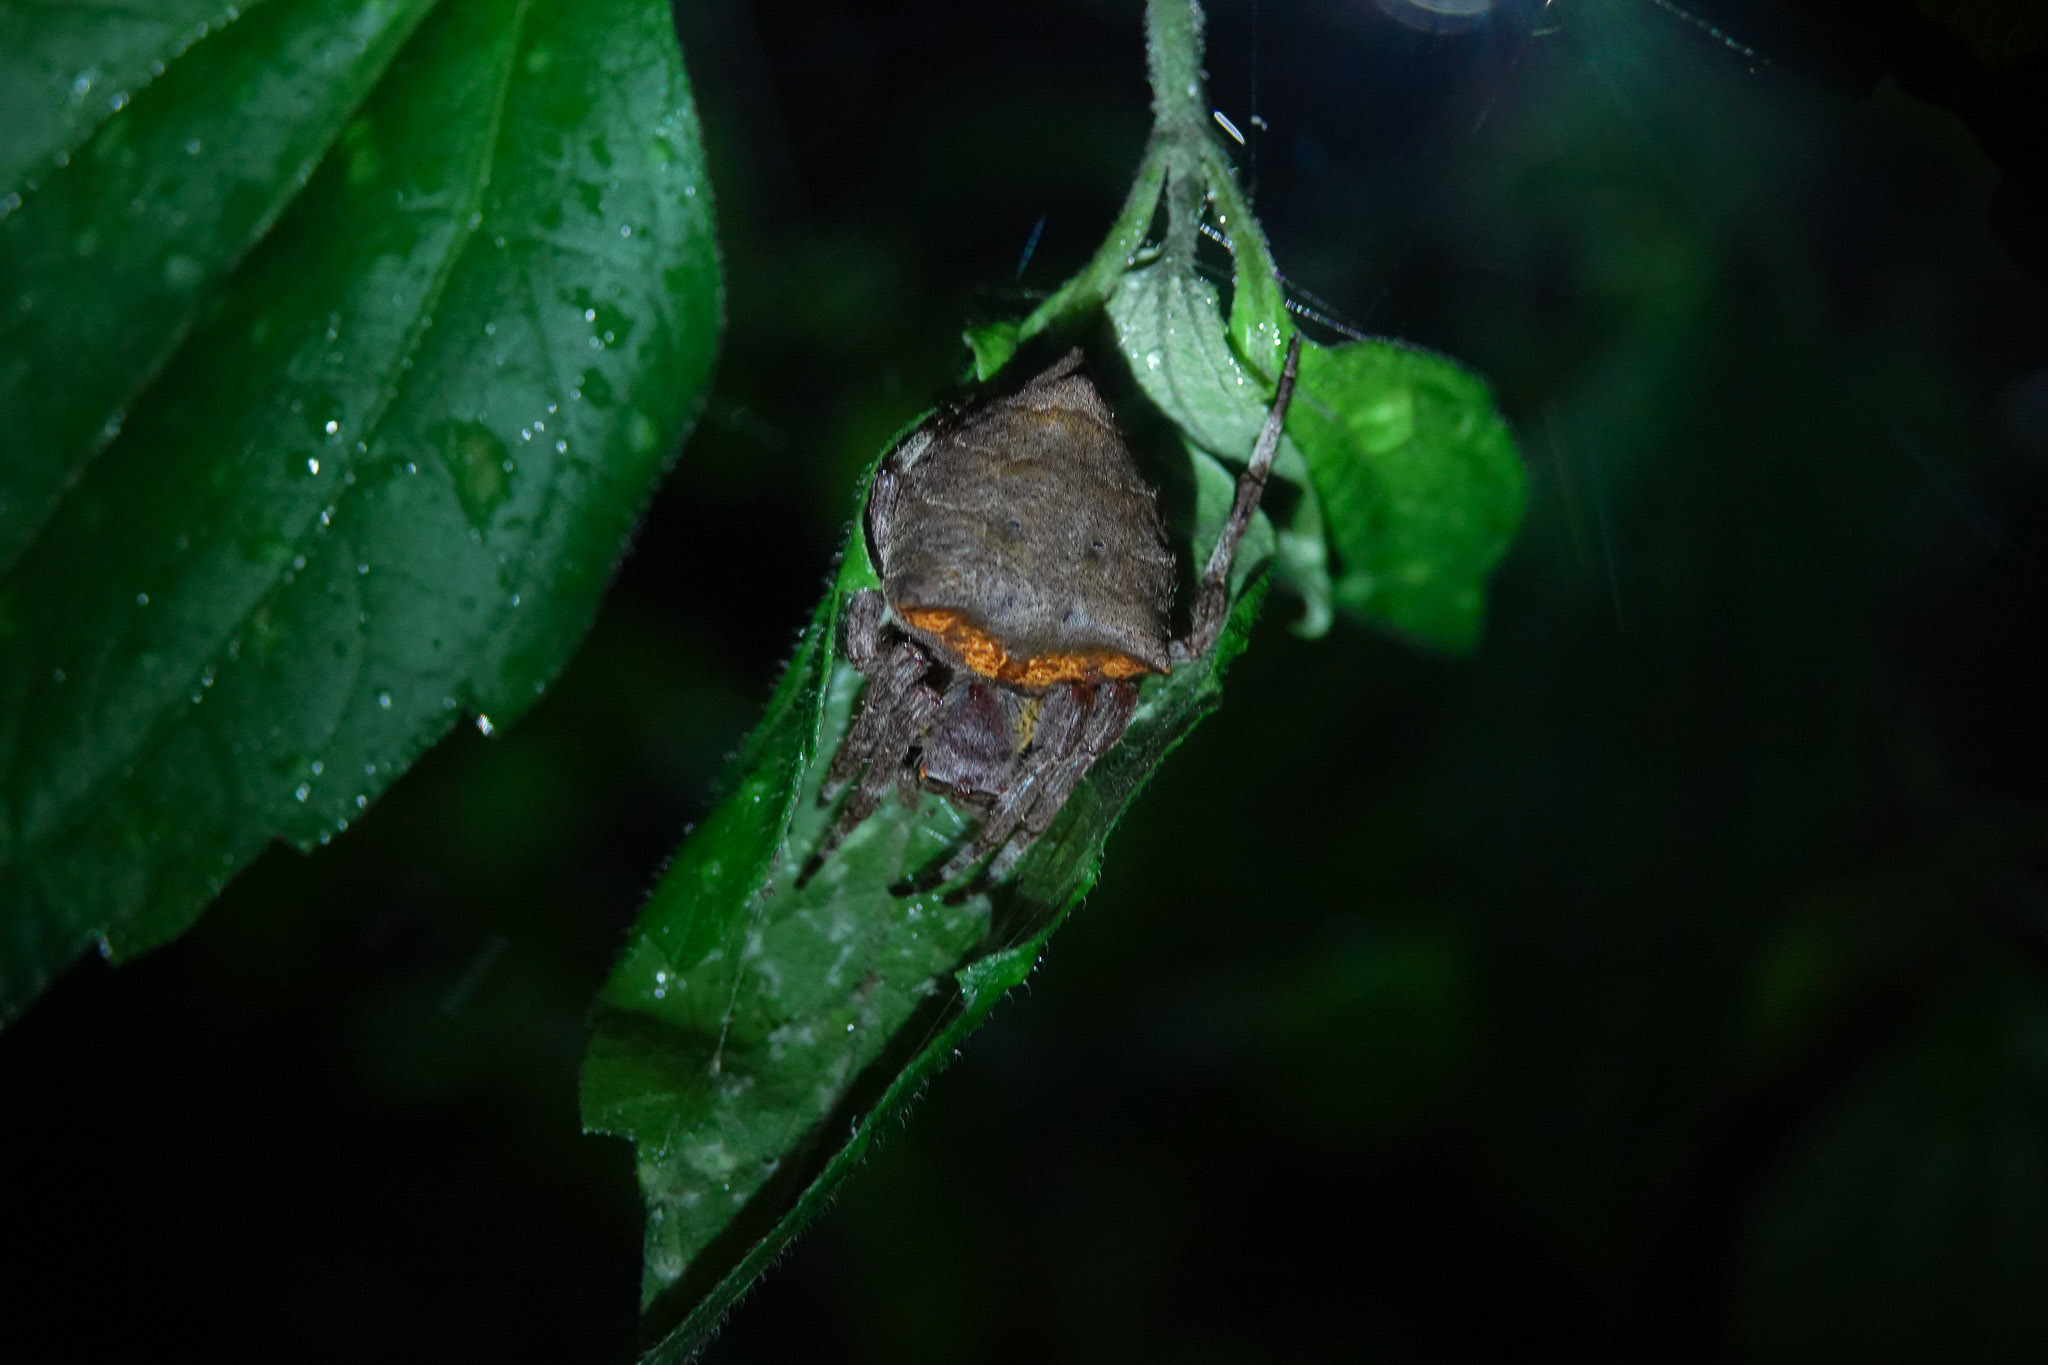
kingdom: Animalia
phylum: Arthropoda
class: Arachnida
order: Araneae
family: Araneidae
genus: Parawixia
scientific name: Parawixia dehaani
